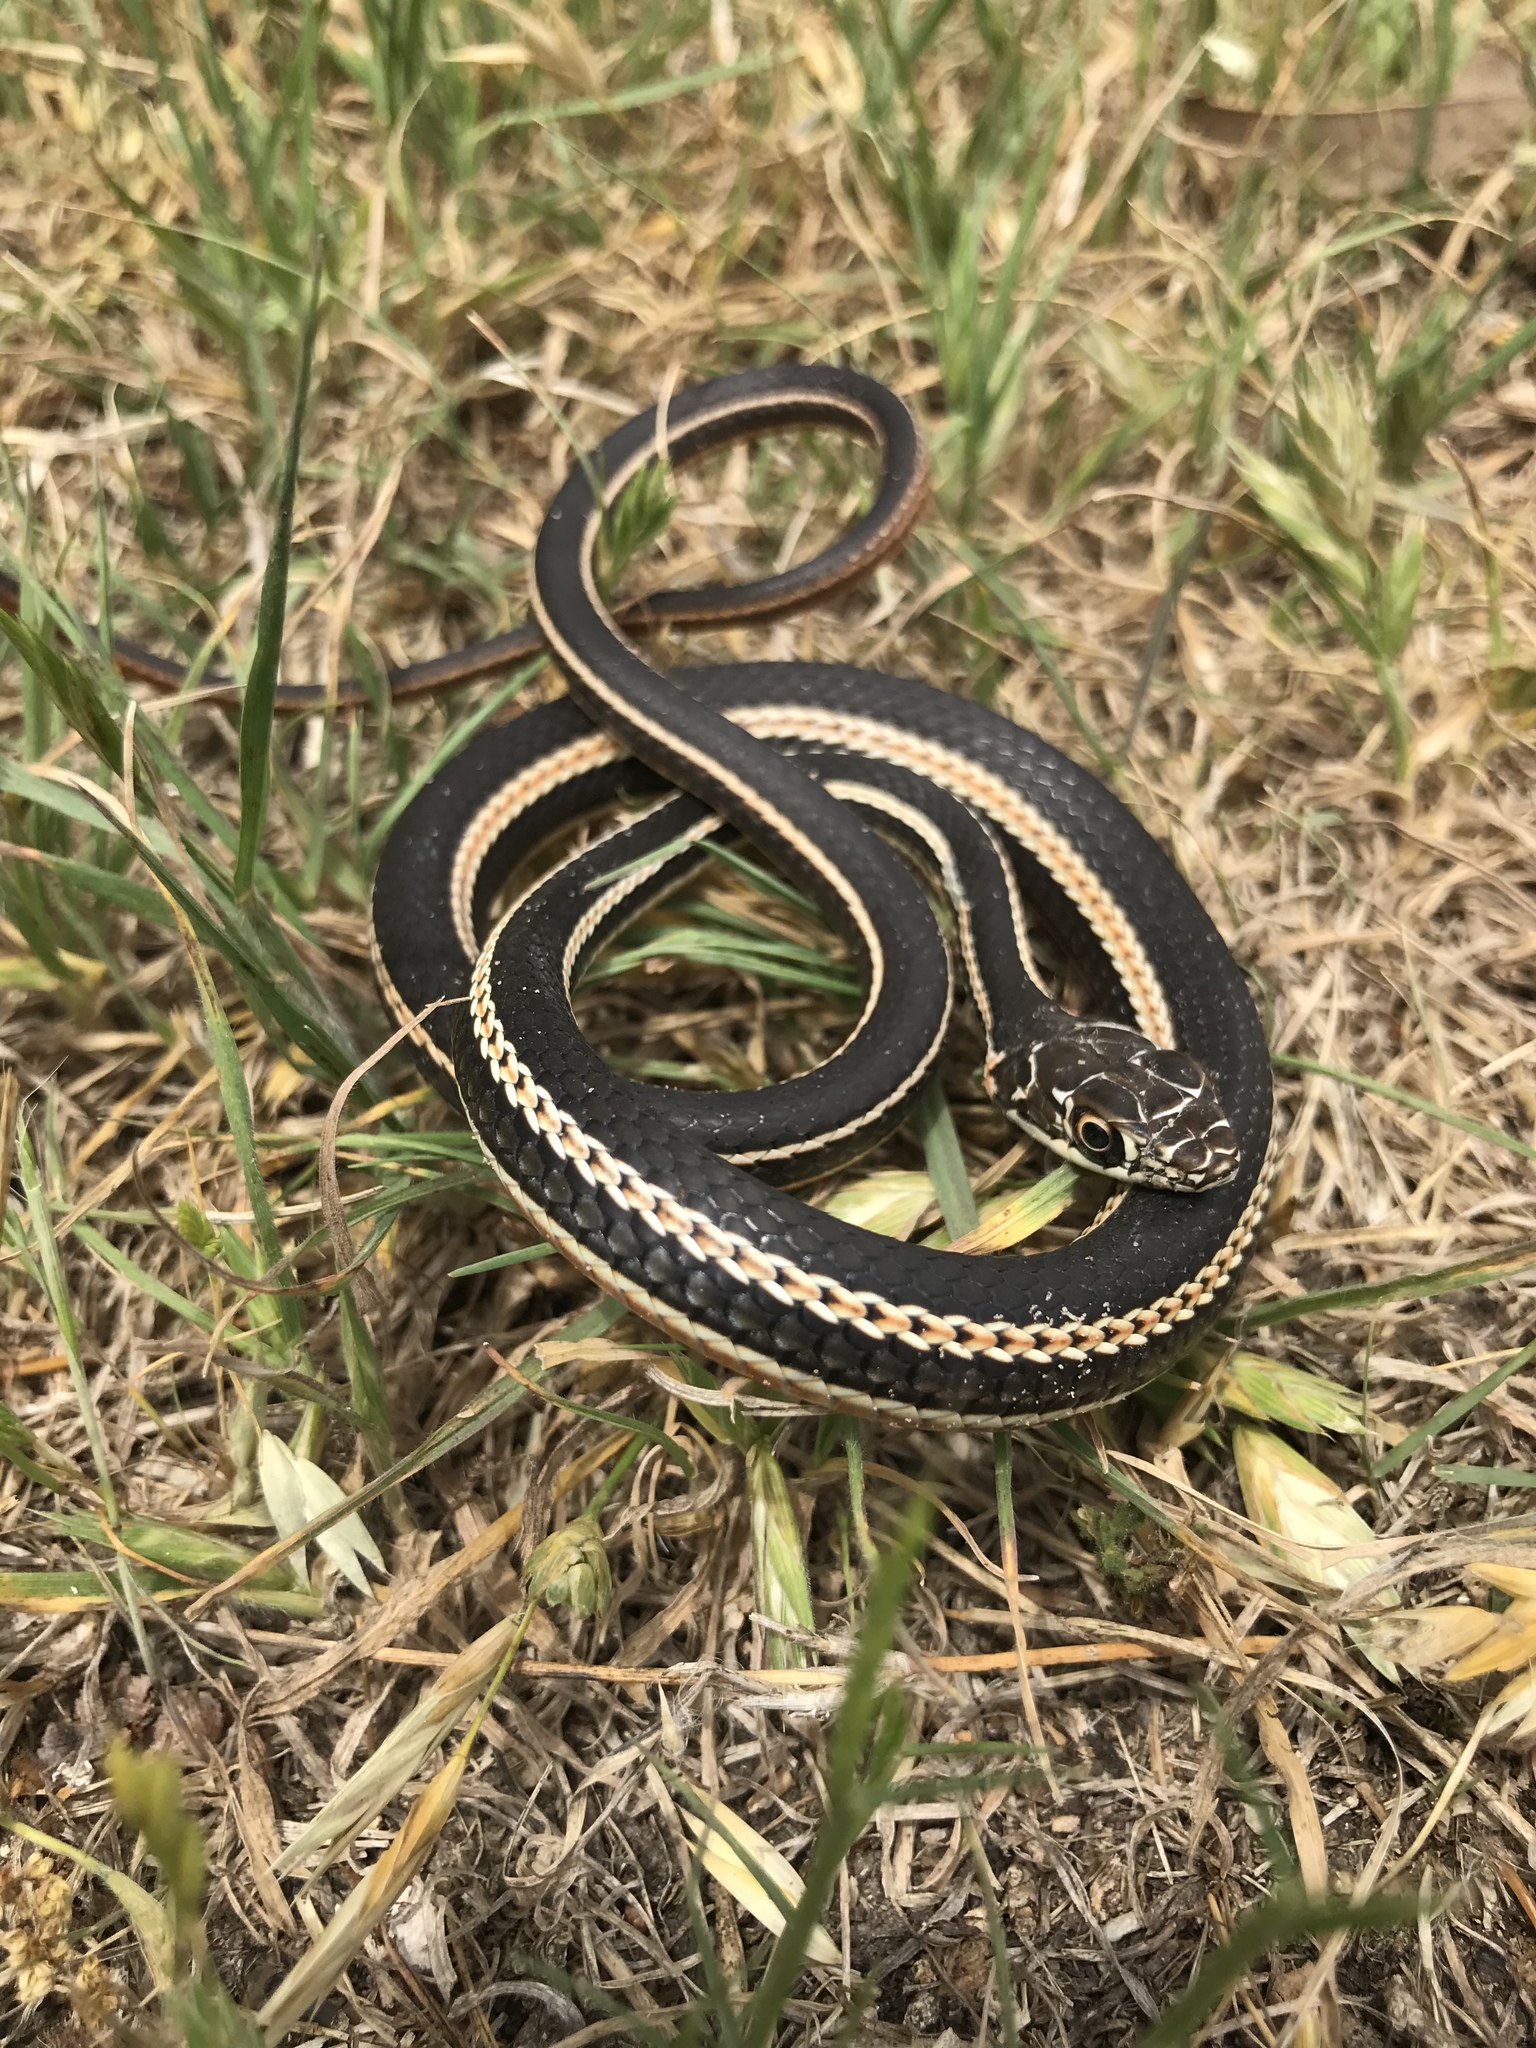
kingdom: Animalia
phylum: Chordata
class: Squamata
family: Colubridae
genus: Masticophis
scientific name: Masticophis taeniatus
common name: Striped whipsnake
